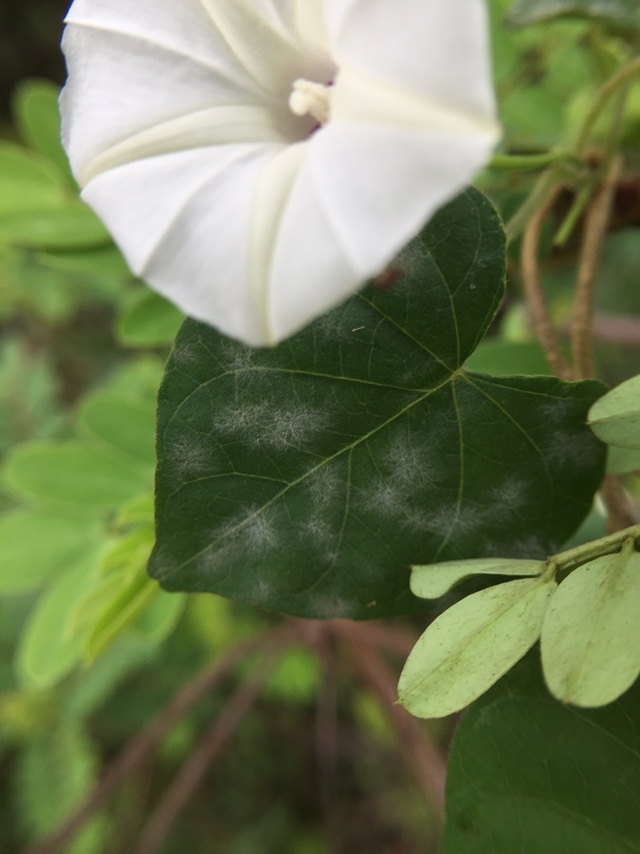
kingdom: Plantae
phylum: Tracheophyta
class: Magnoliopsida
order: Solanales
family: Convolvulaceae
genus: Ipomoea
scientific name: Ipomoea obscura
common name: Obscure morning-glory
